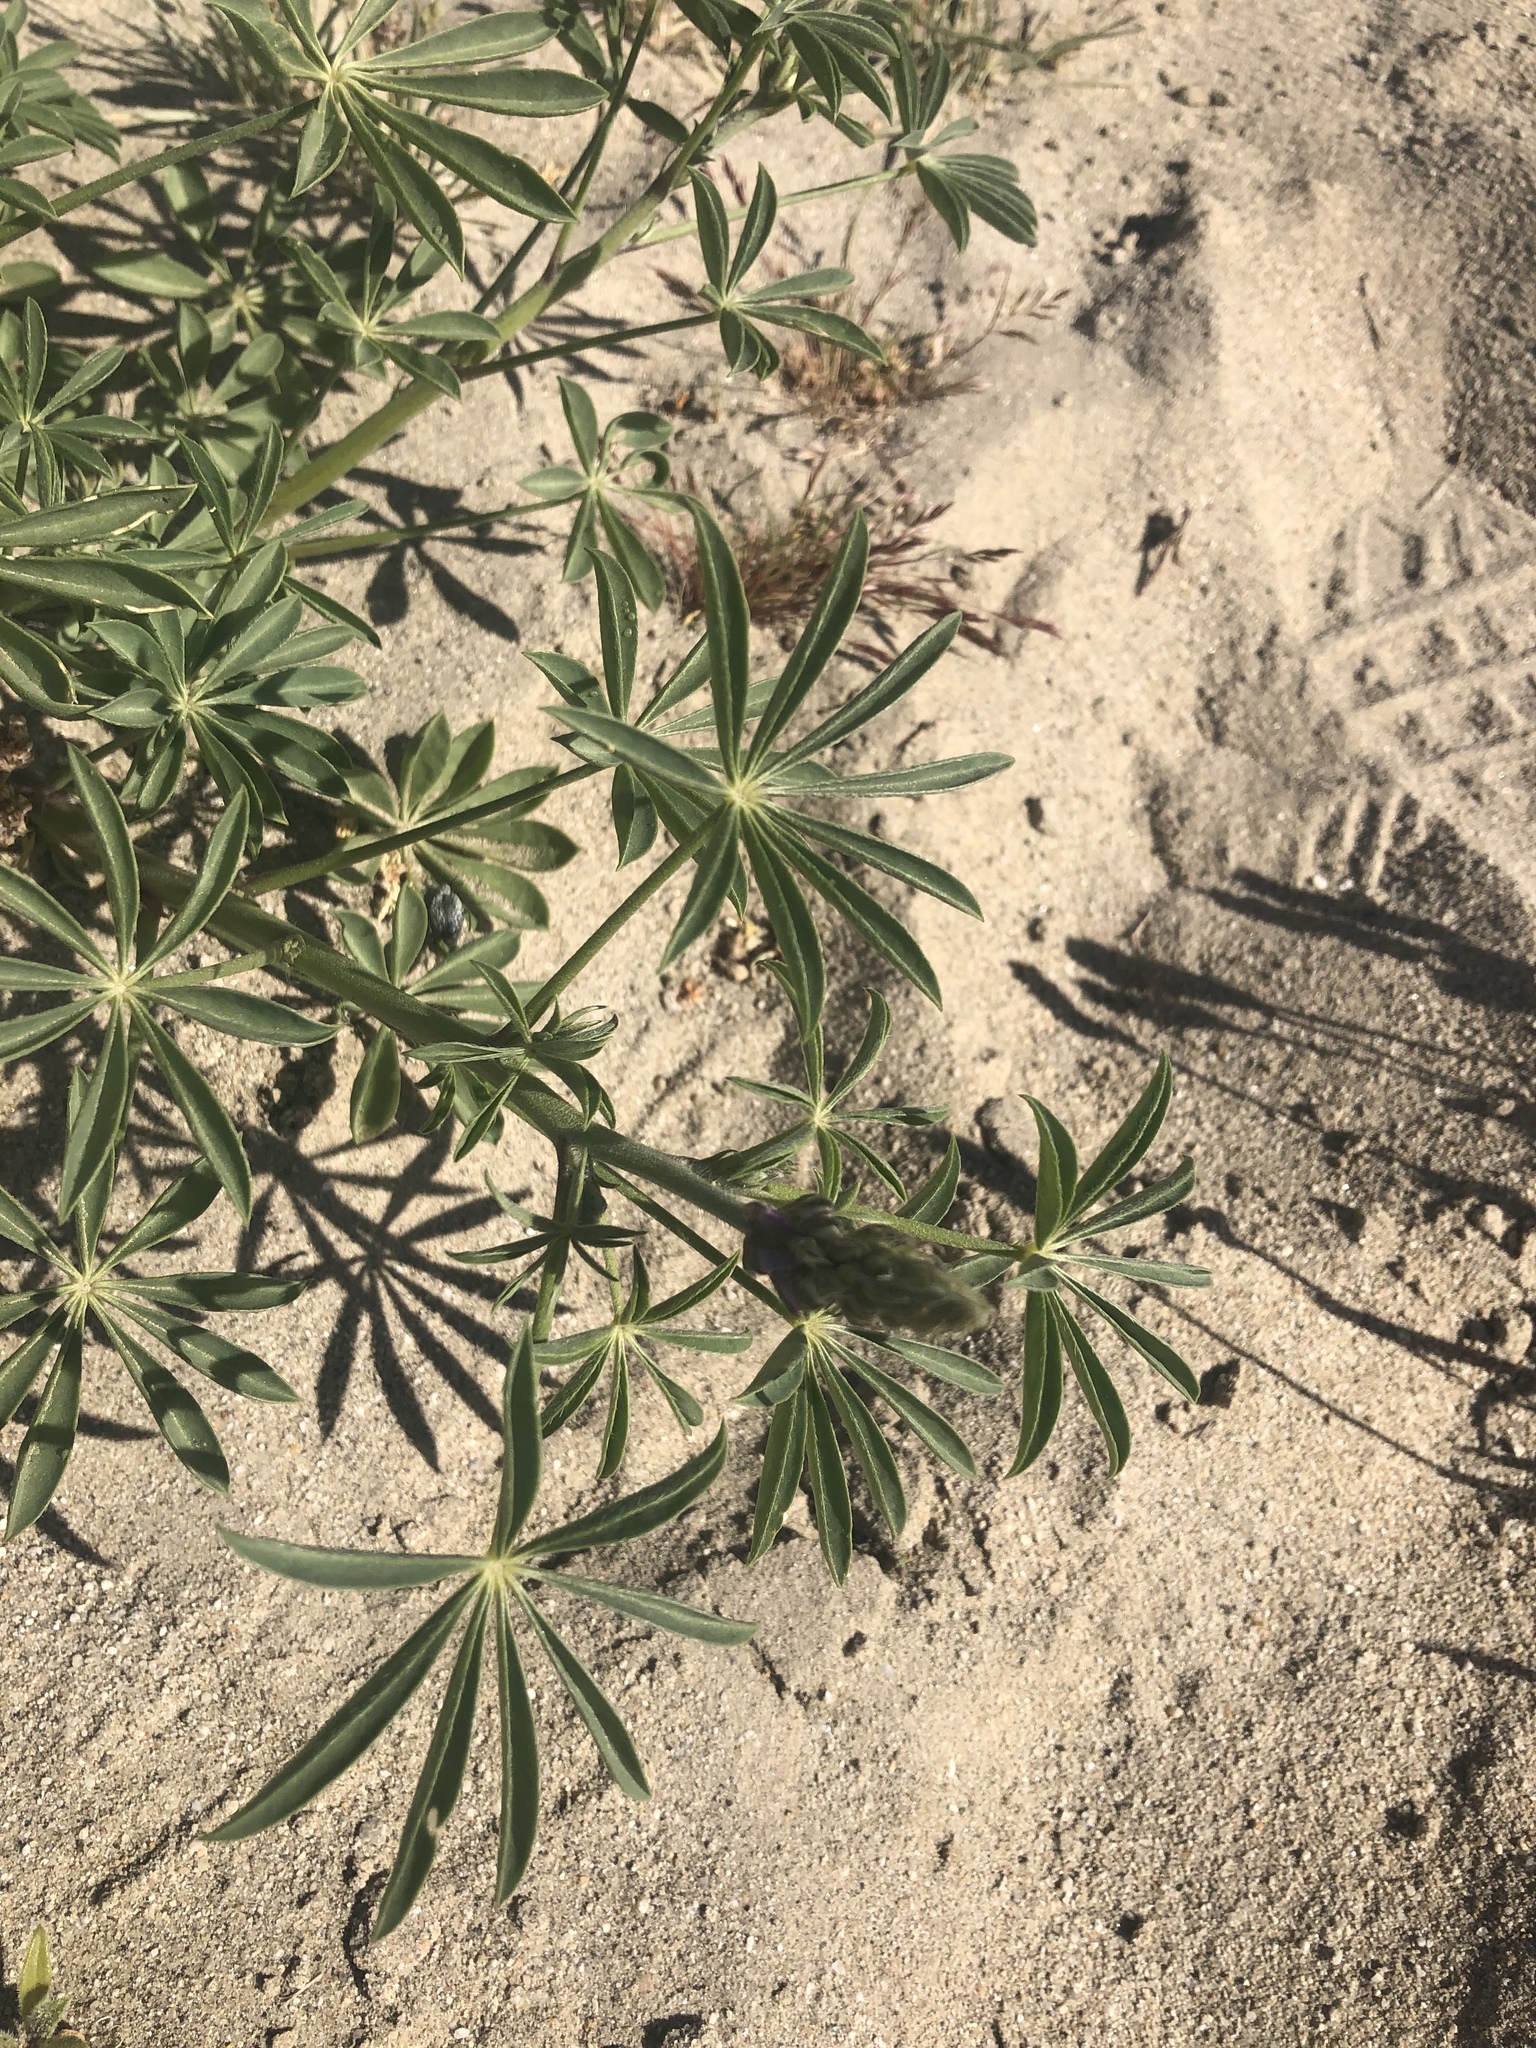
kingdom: Plantae
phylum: Tracheophyta
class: Magnoliopsida
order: Fabales
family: Fabaceae
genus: Lupinus
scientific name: Lupinus arizonicus
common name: Arizona lupine
